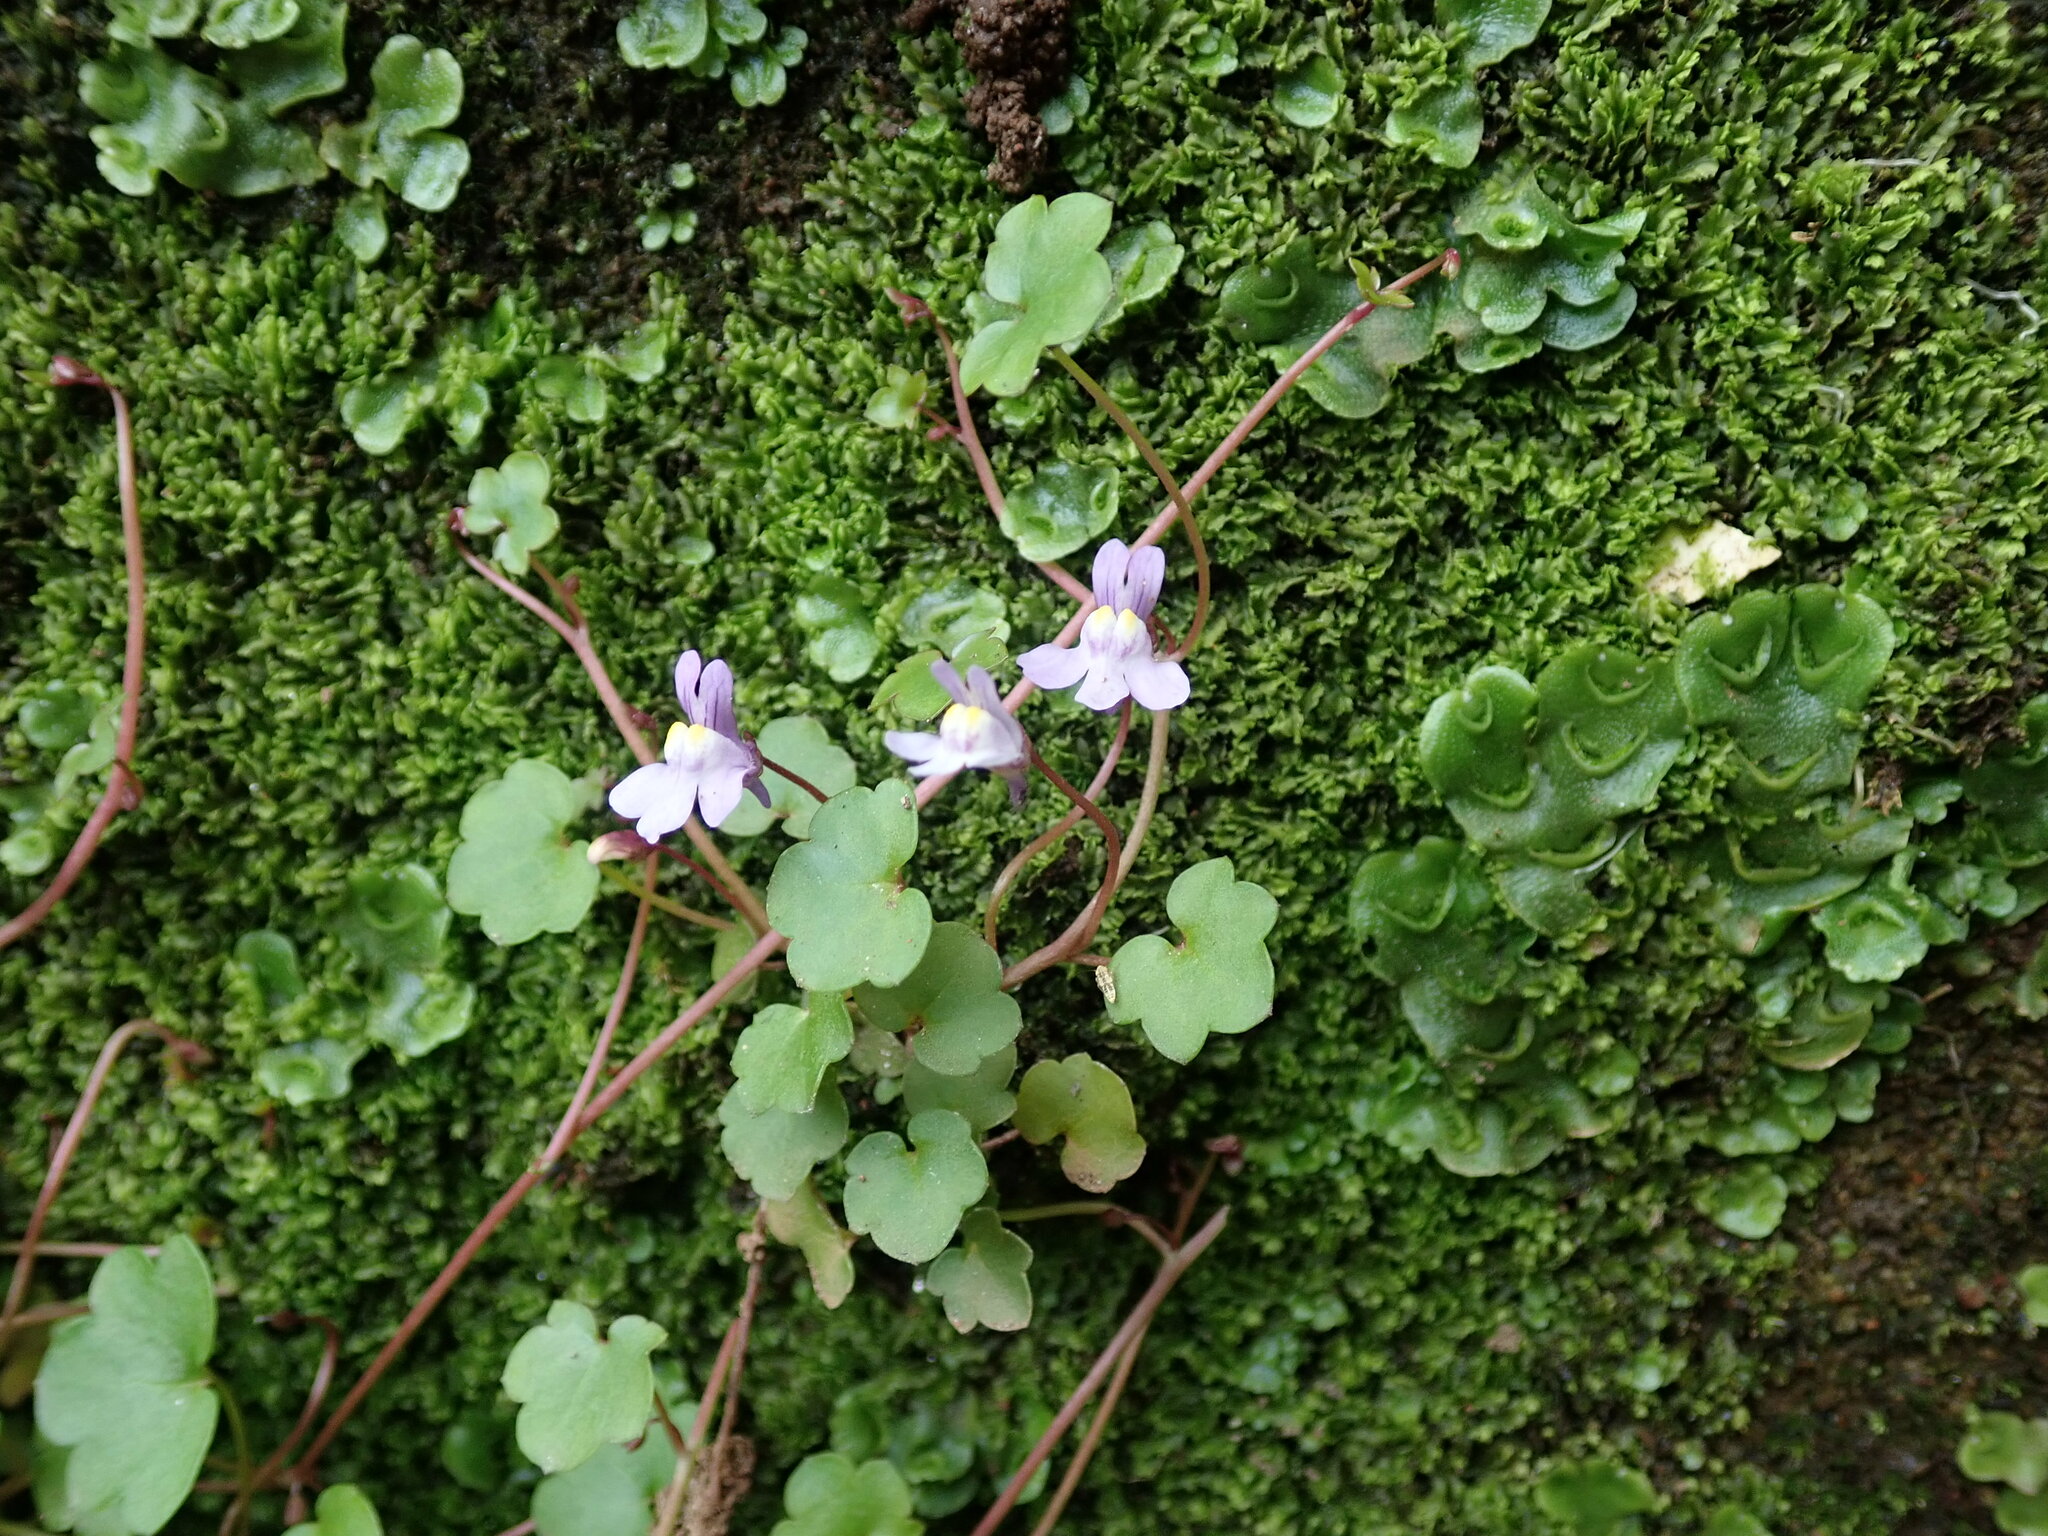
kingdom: Plantae
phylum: Tracheophyta
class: Magnoliopsida
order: Lamiales
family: Plantaginaceae
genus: Cymbalaria
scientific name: Cymbalaria muralis
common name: Ivy-leaved toadflax
